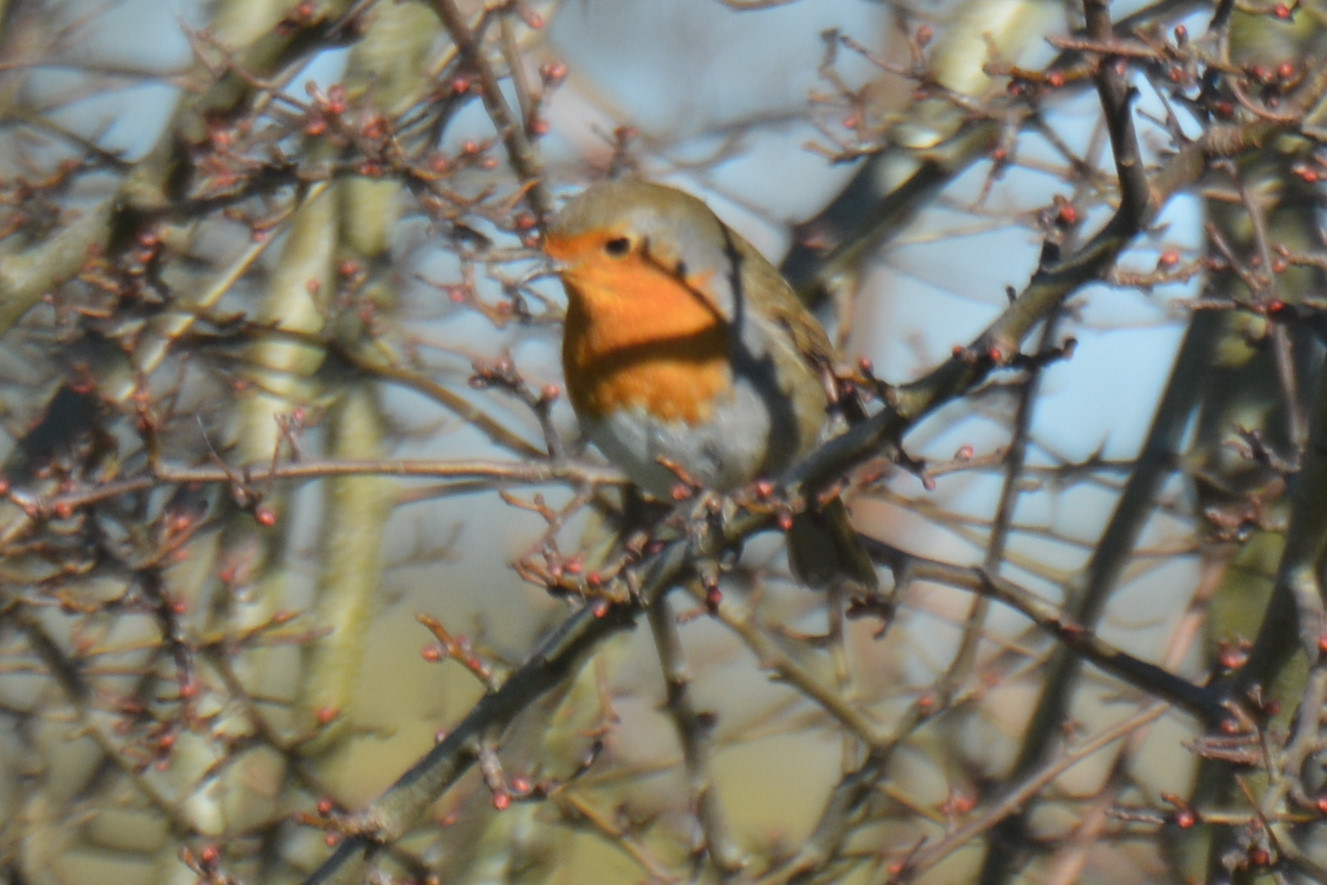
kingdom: Animalia
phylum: Chordata
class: Aves
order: Passeriformes
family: Muscicapidae
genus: Erithacus
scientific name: Erithacus rubecula
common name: European robin
